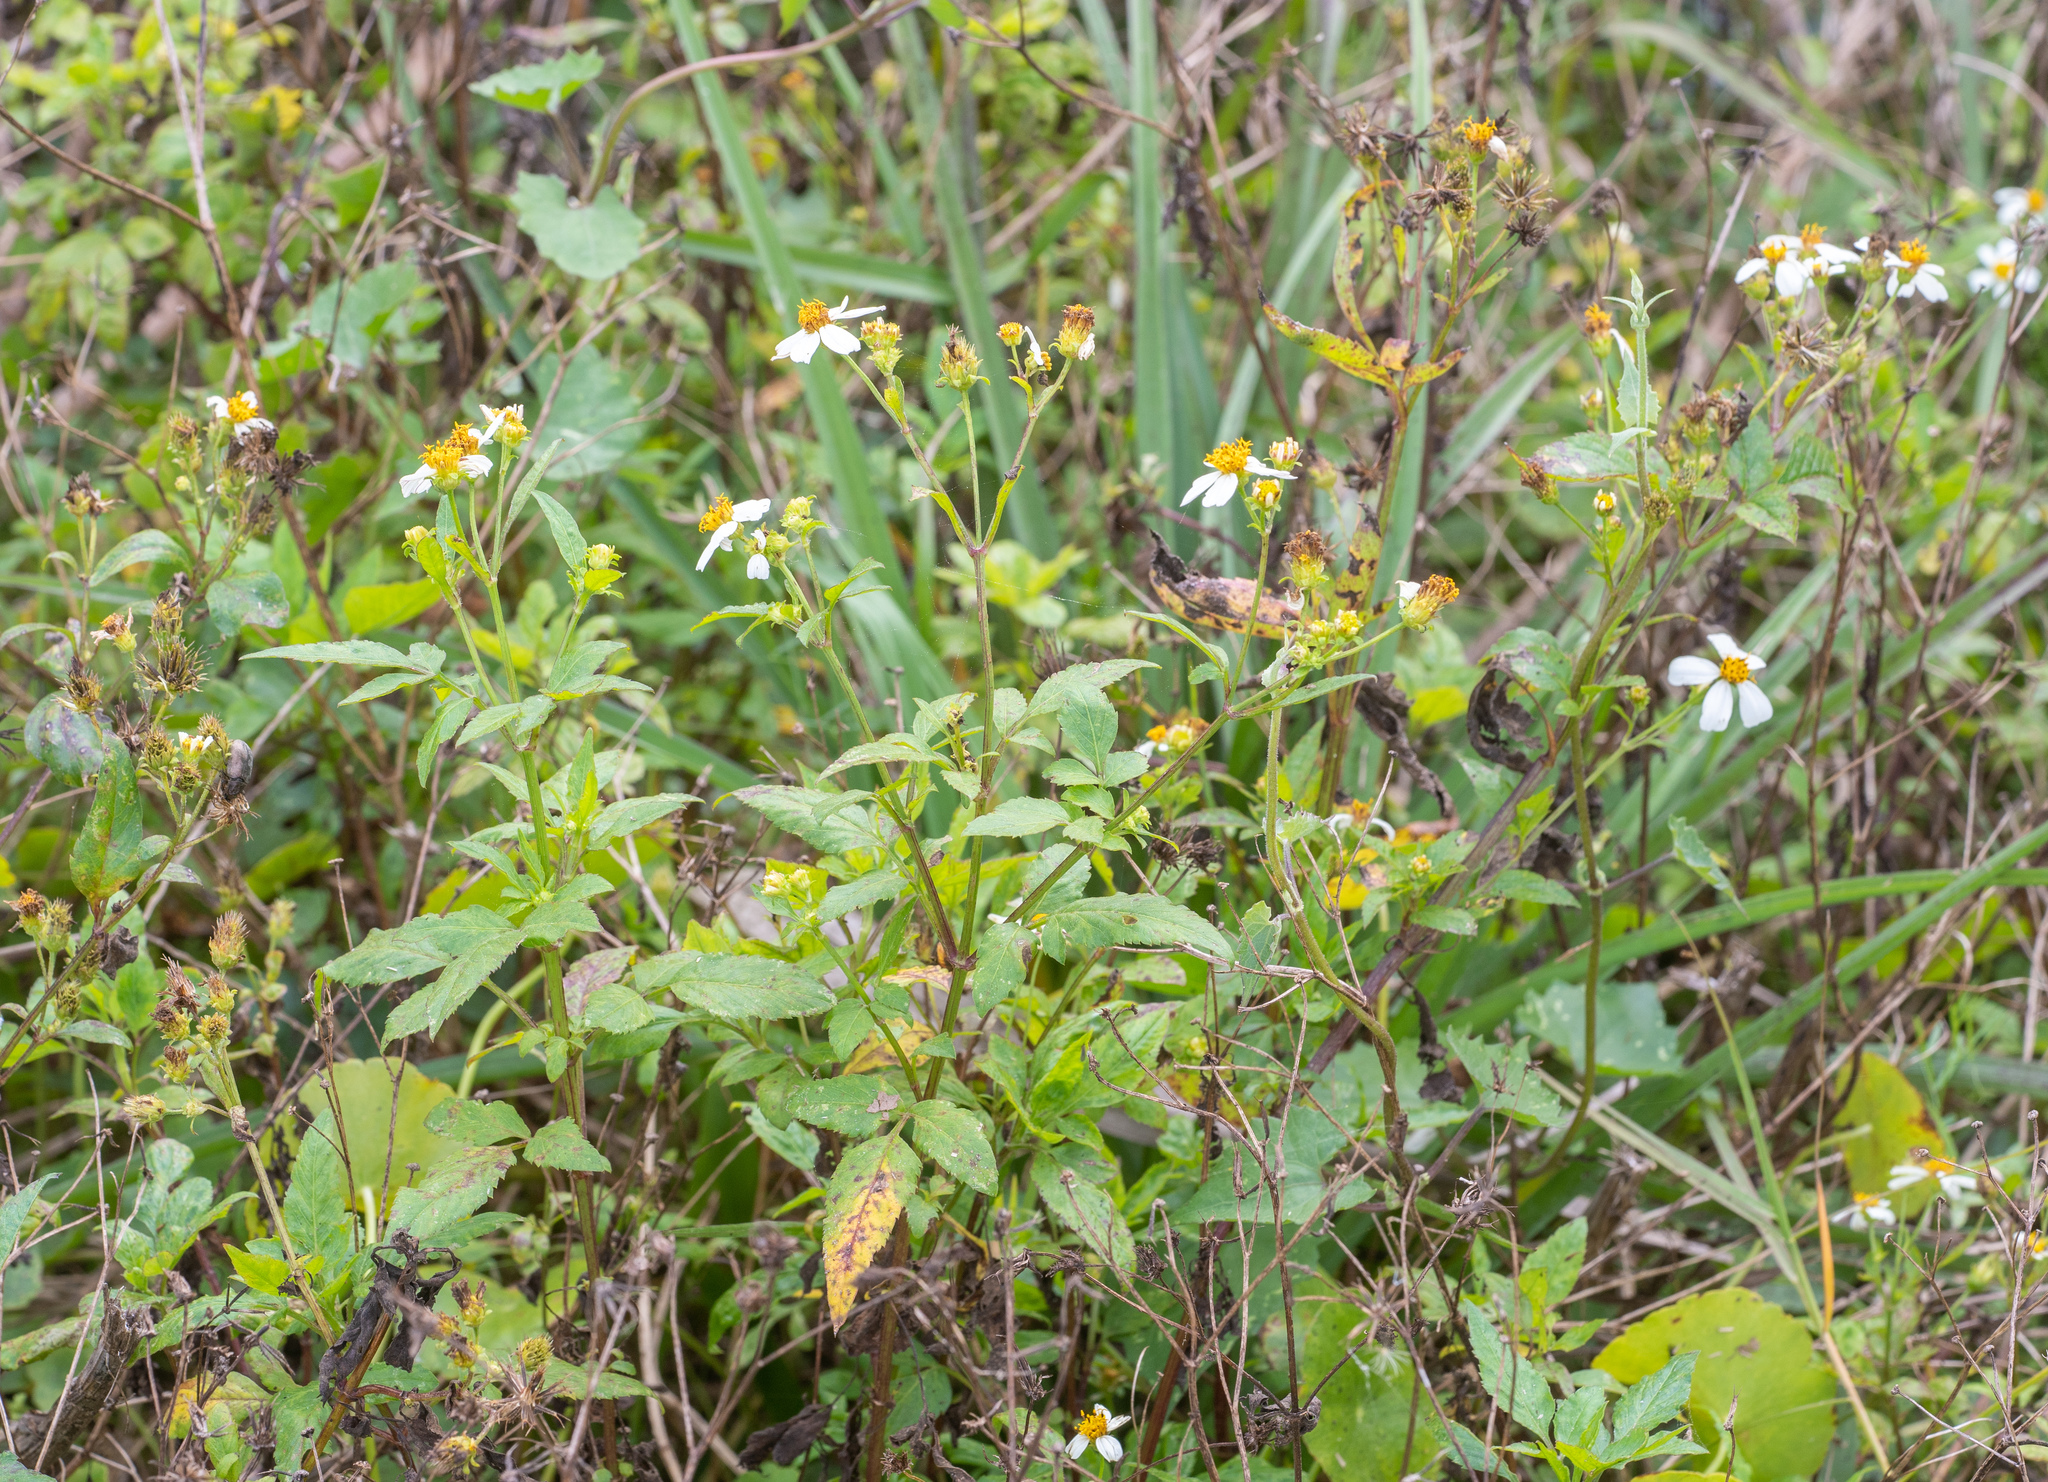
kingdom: Plantae
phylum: Tracheophyta
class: Magnoliopsida
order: Asterales
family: Asteraceae
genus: Bidens
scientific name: Bidens alba
